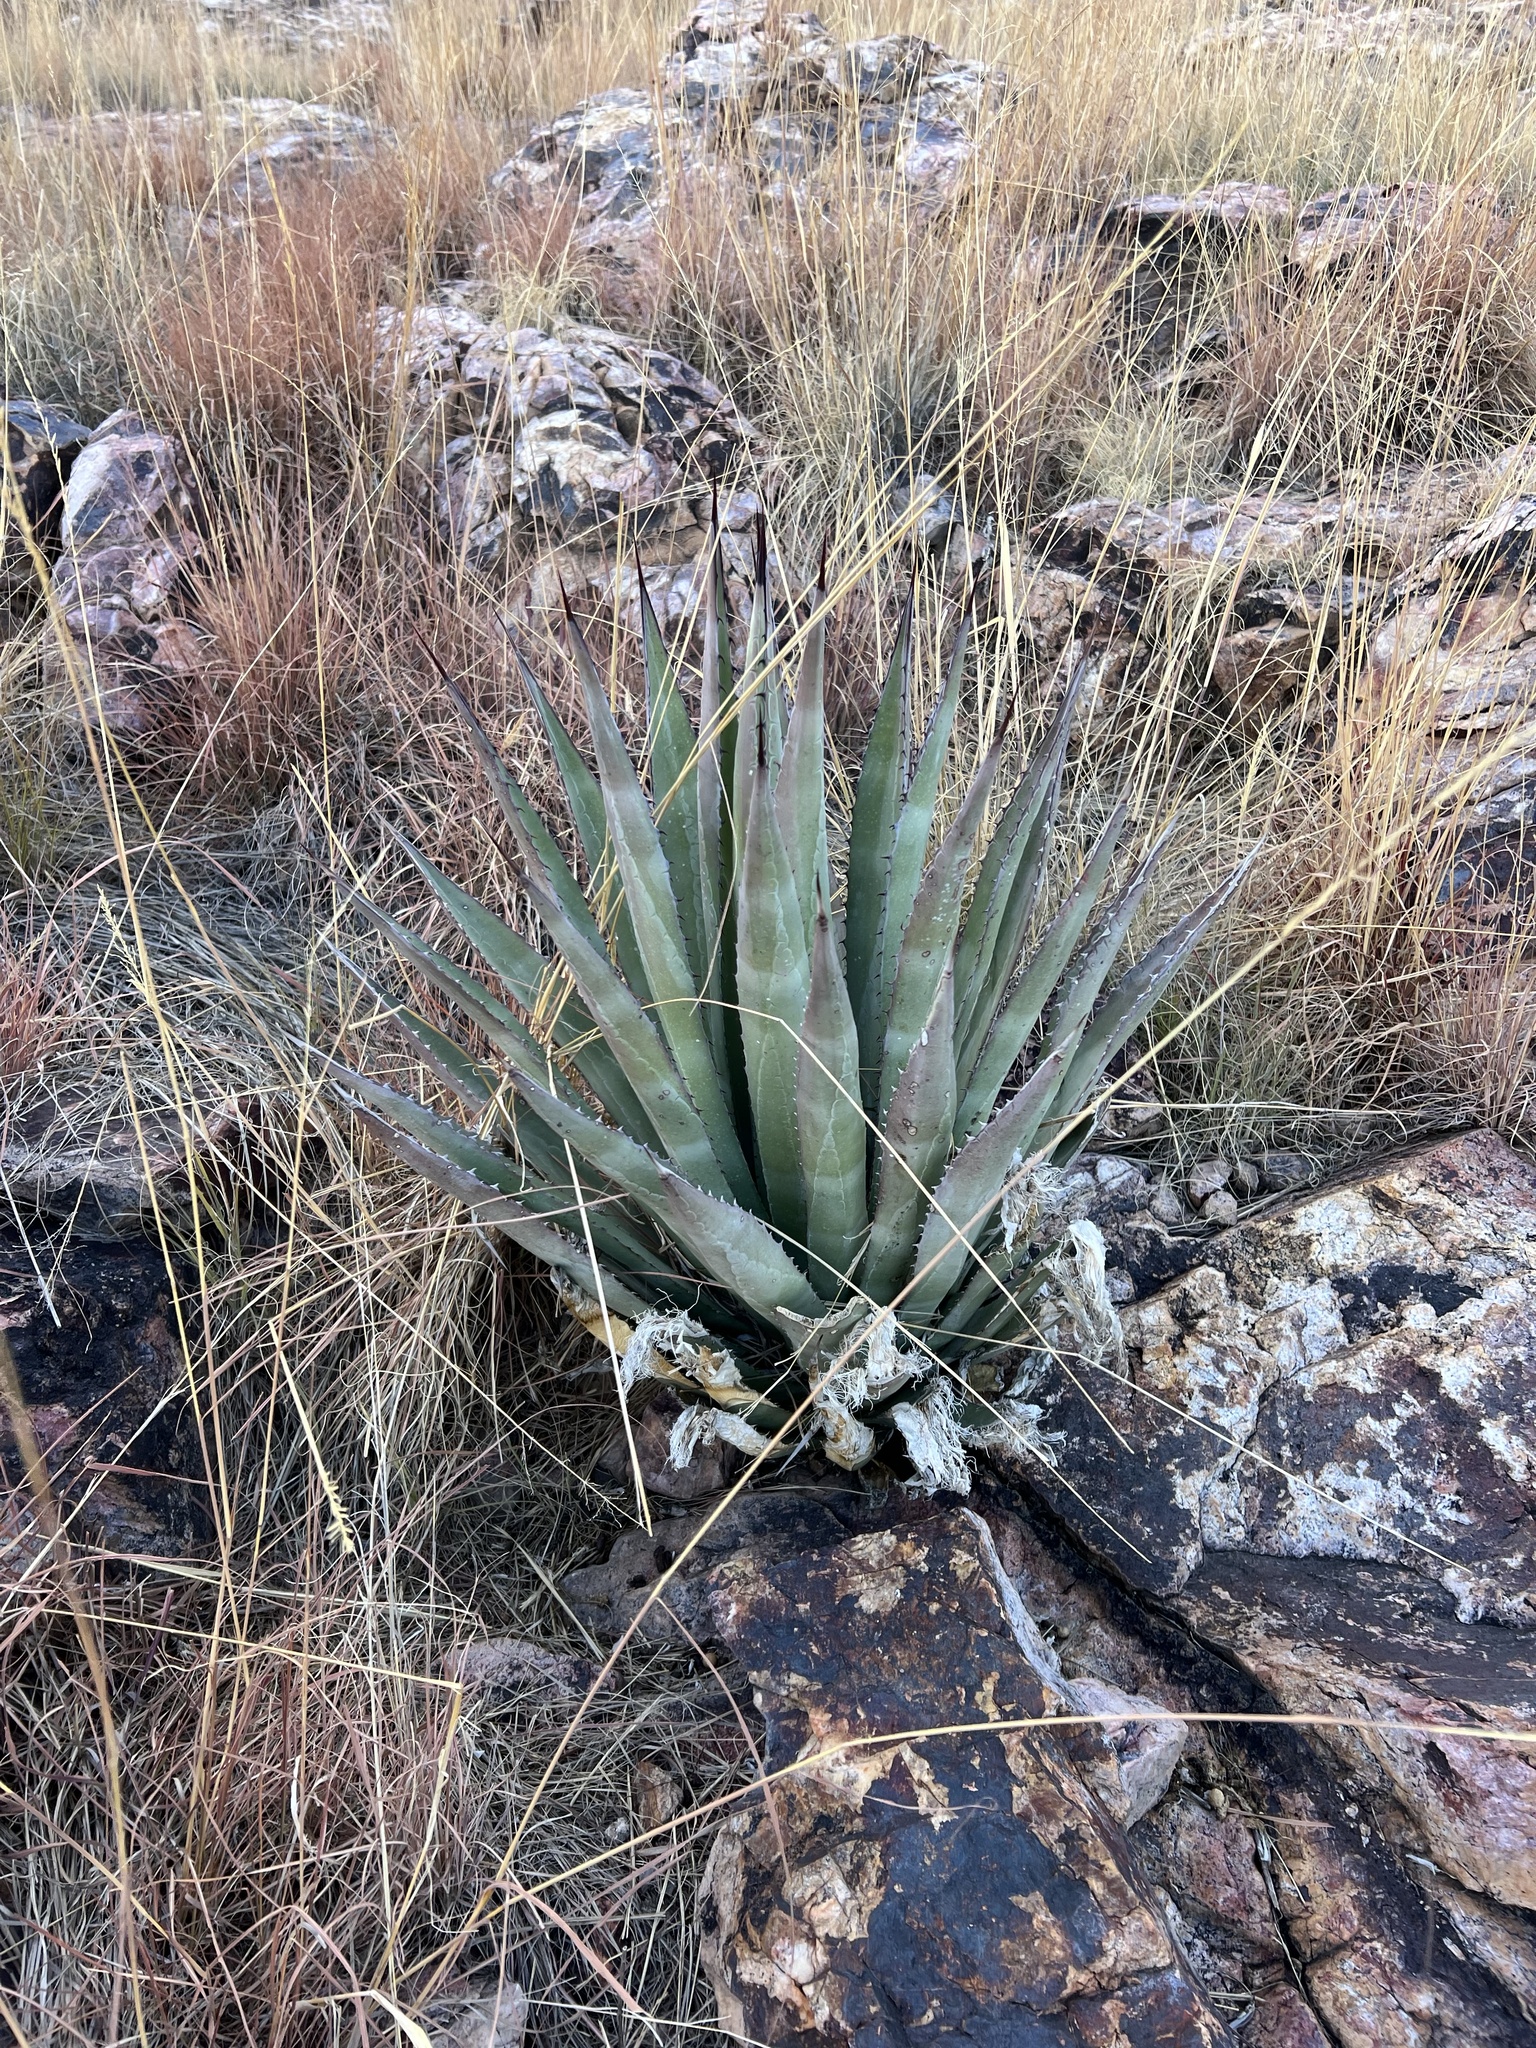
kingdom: Plantae
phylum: Tracheophyta
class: Liliopsida
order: Asparagales
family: Asparagaceae
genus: Agave
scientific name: Agave palmeri
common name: Palmer agave
